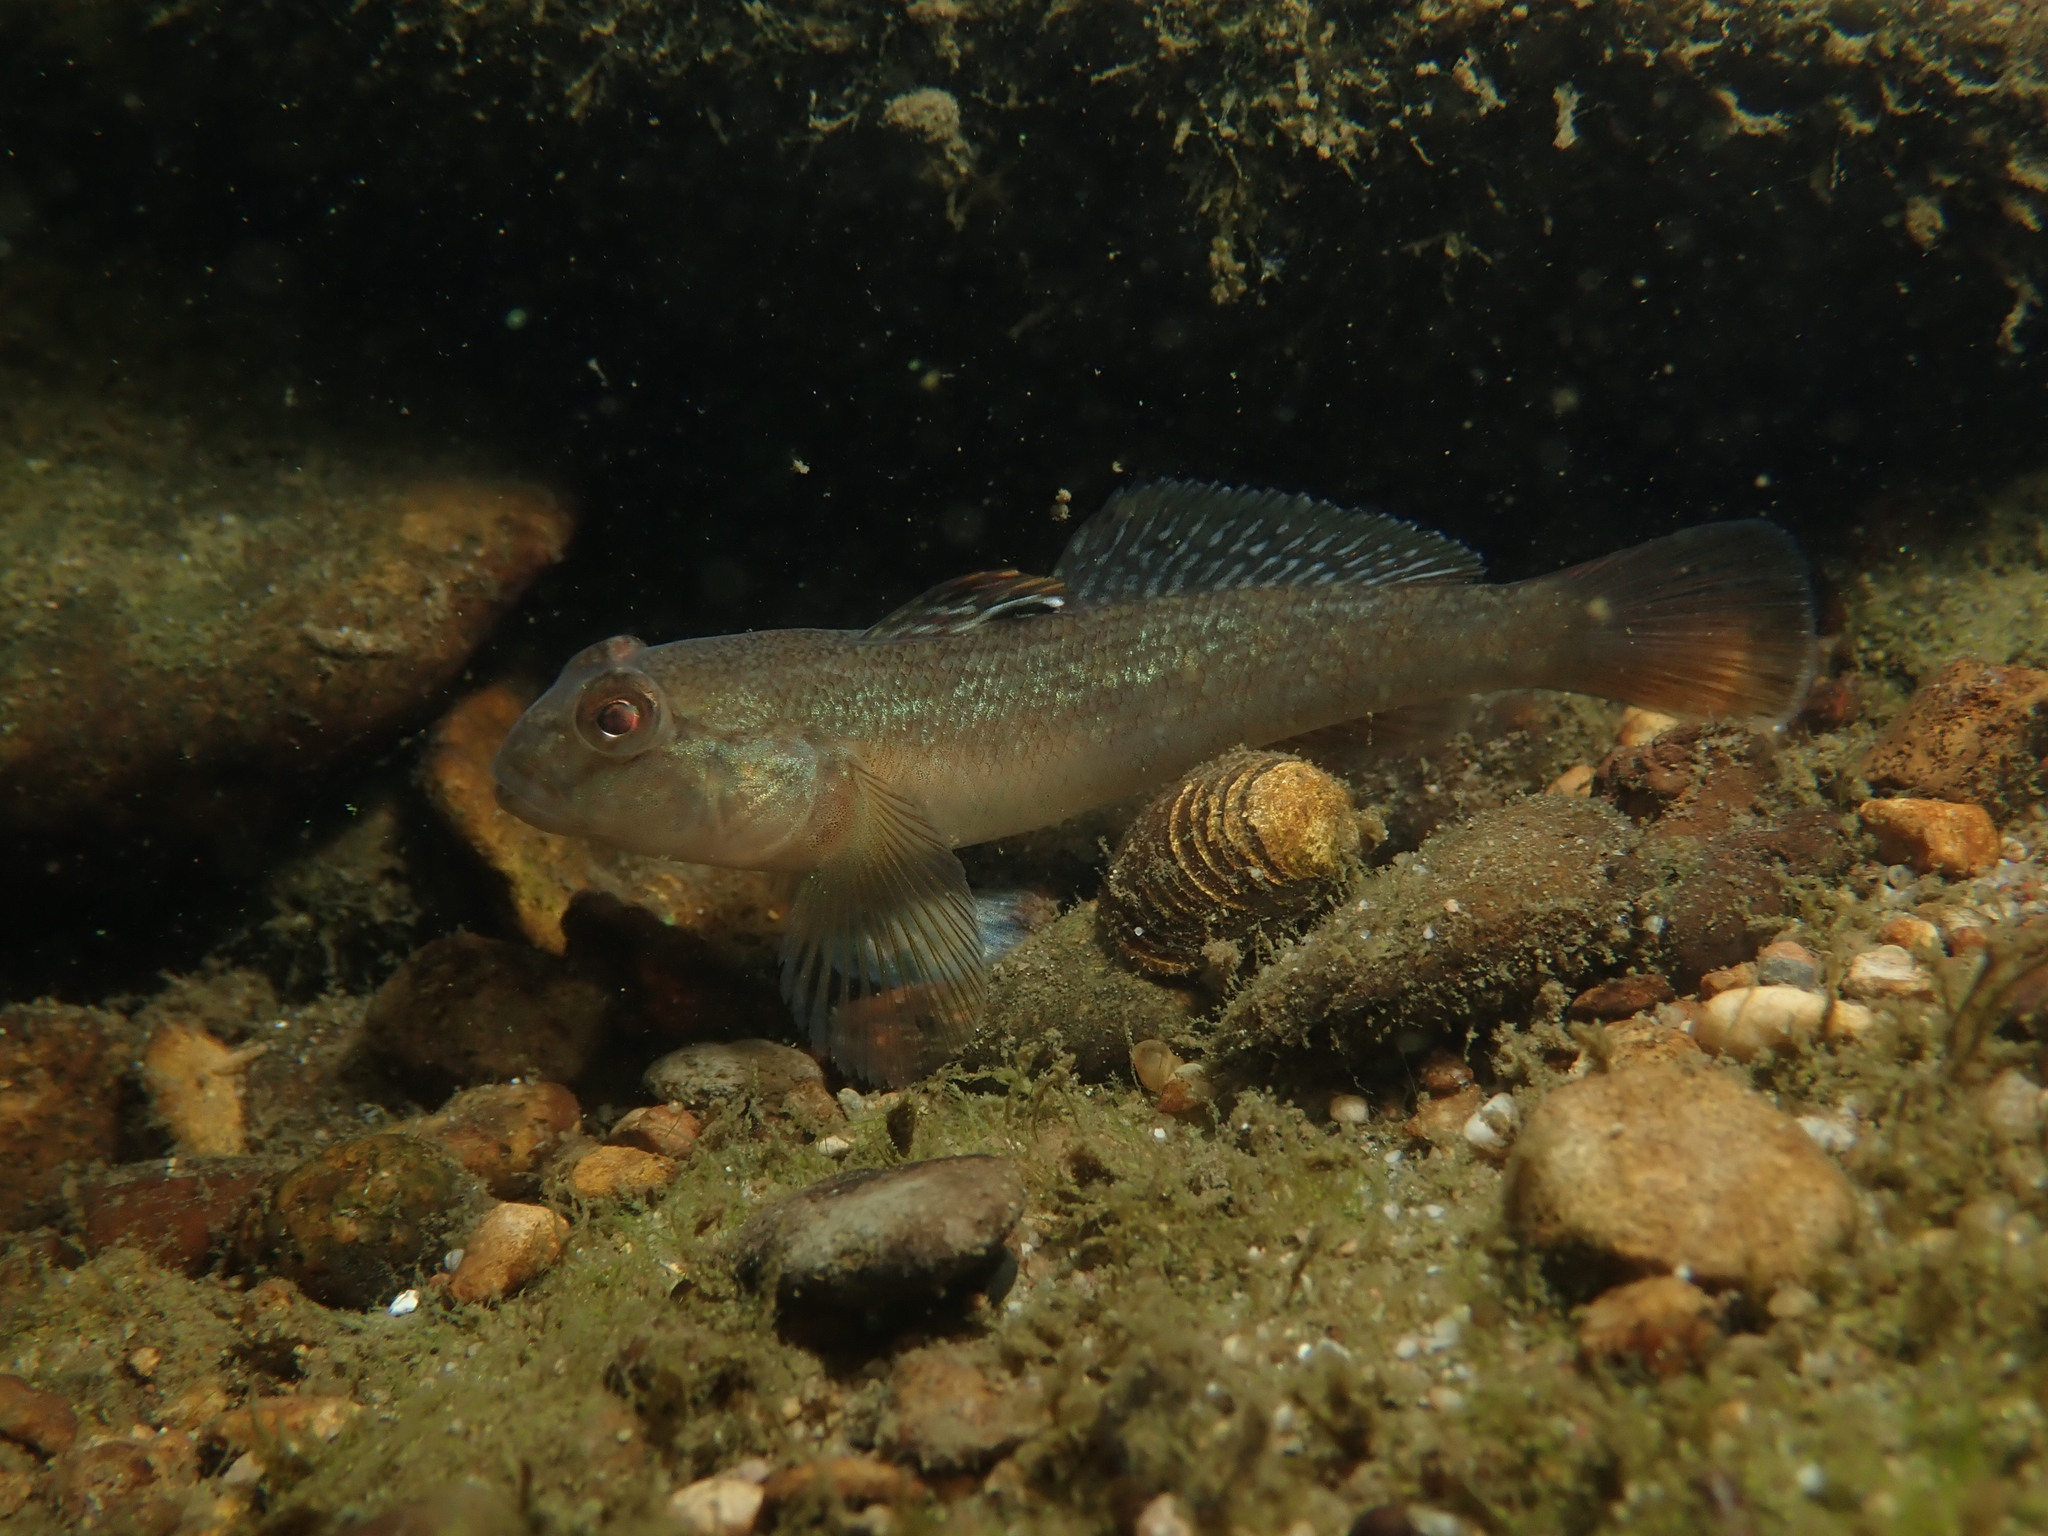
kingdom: Animalia
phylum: Chordata
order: Perciformes
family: Gobiidae
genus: Neogobius
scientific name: Neogobius melanostomus
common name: Round goby
